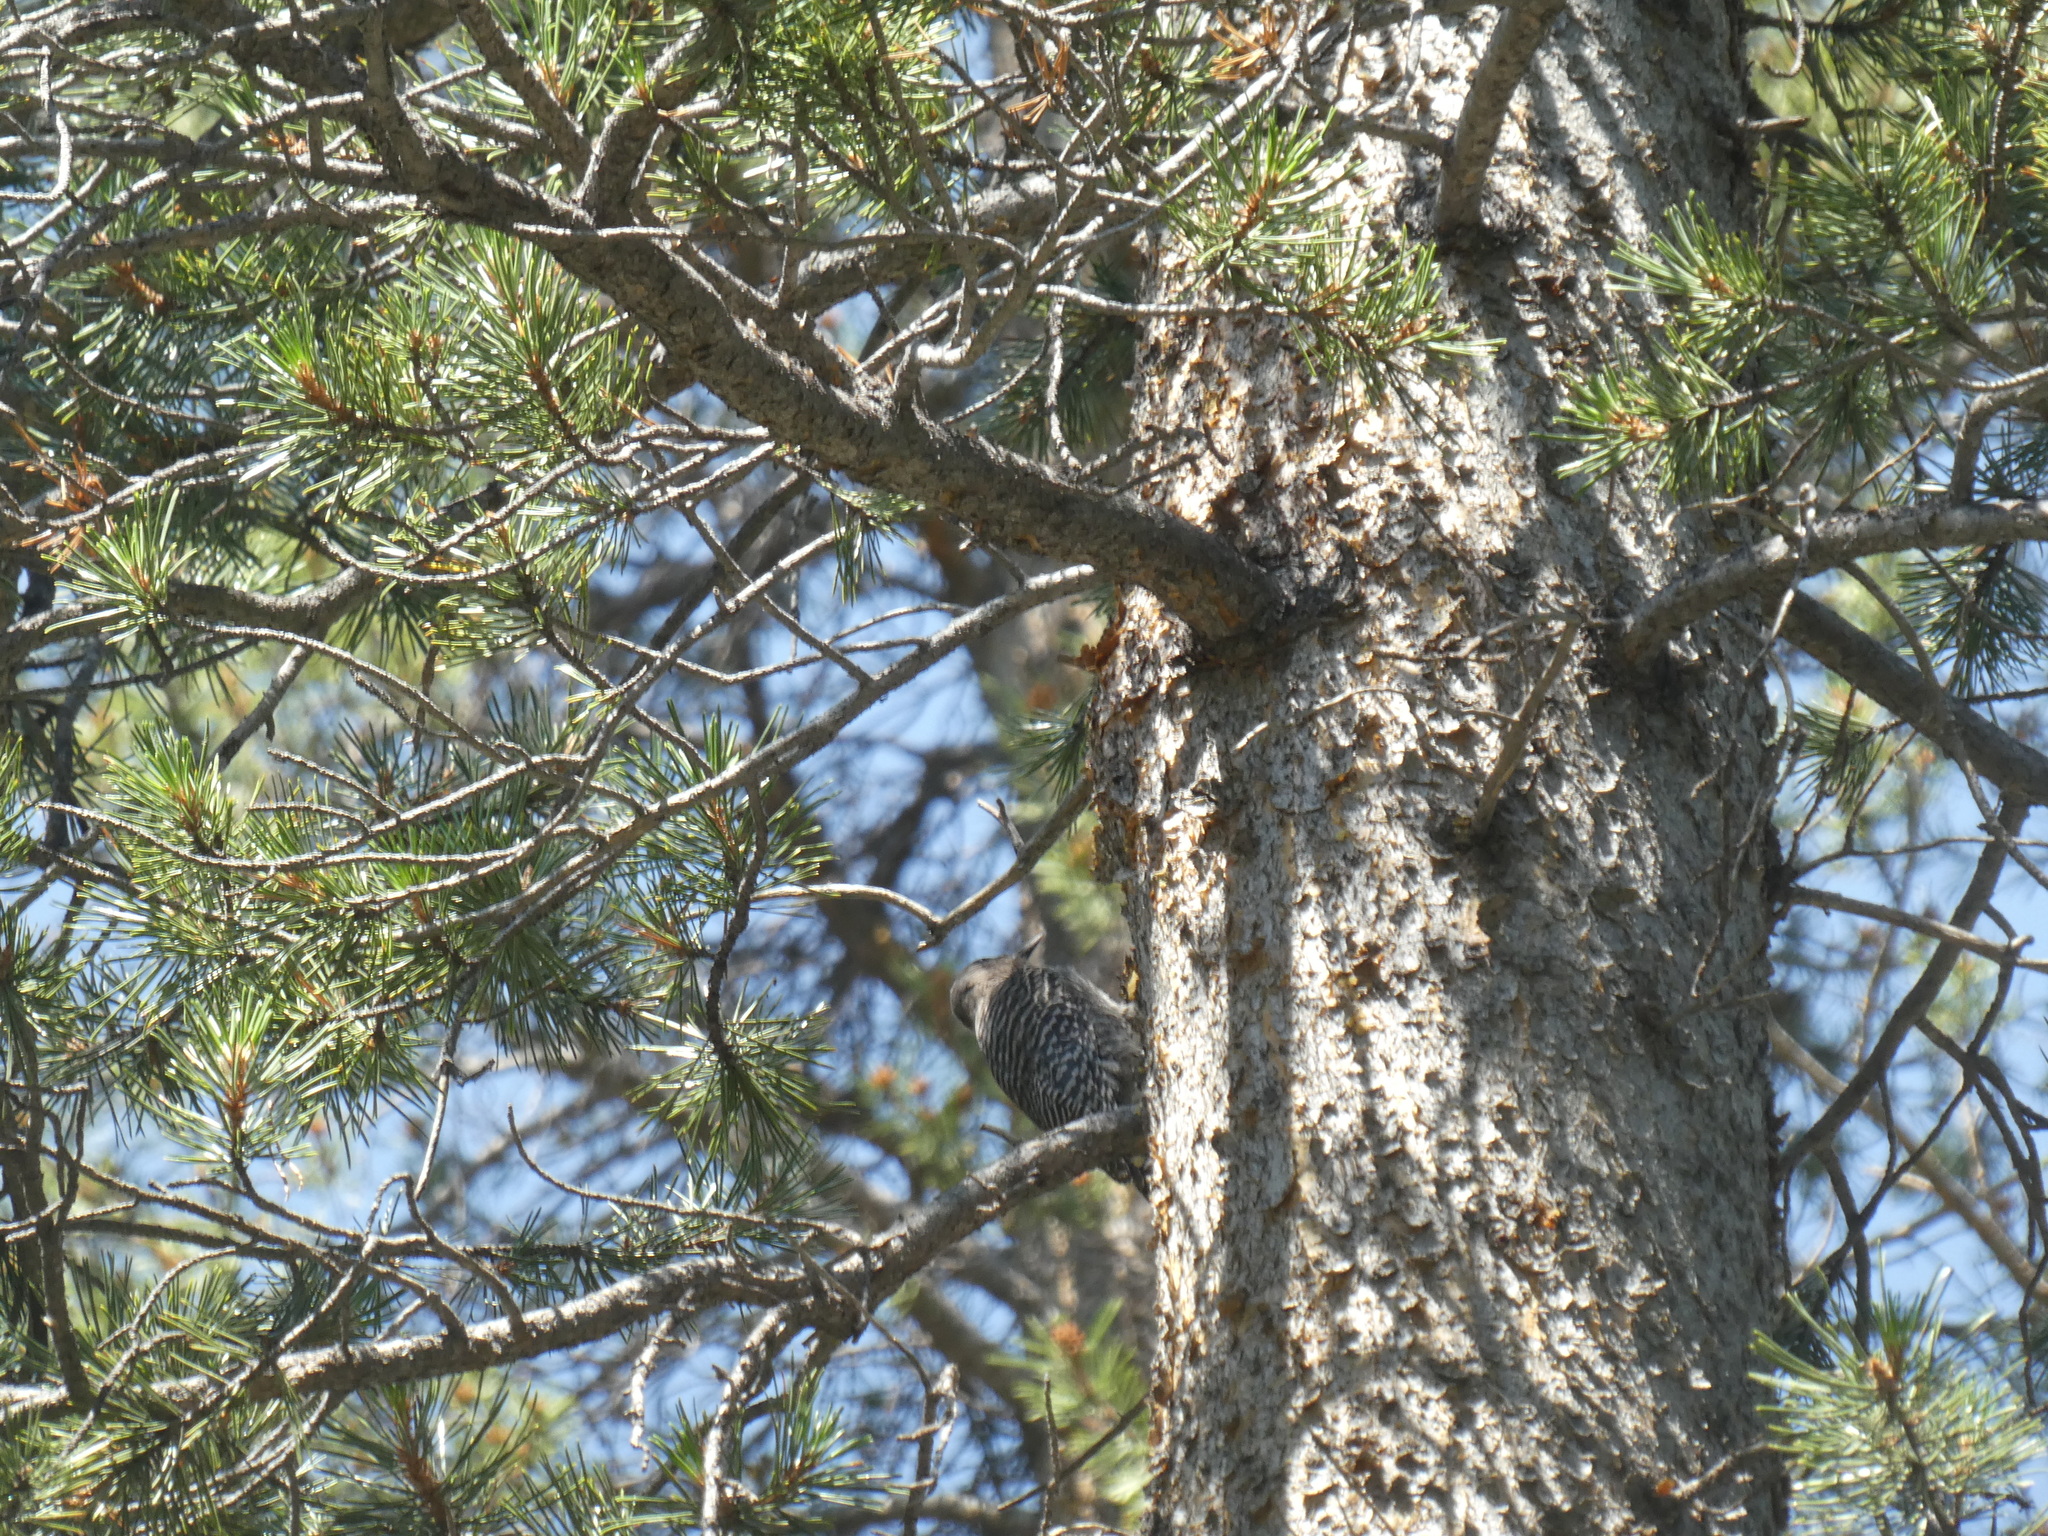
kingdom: Animalia
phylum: Chordata
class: Aves
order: Piciformes
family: Picidae
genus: Sphyrapicus
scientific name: Sphyrapicus thyroideus
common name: Williamson's sapsucker
